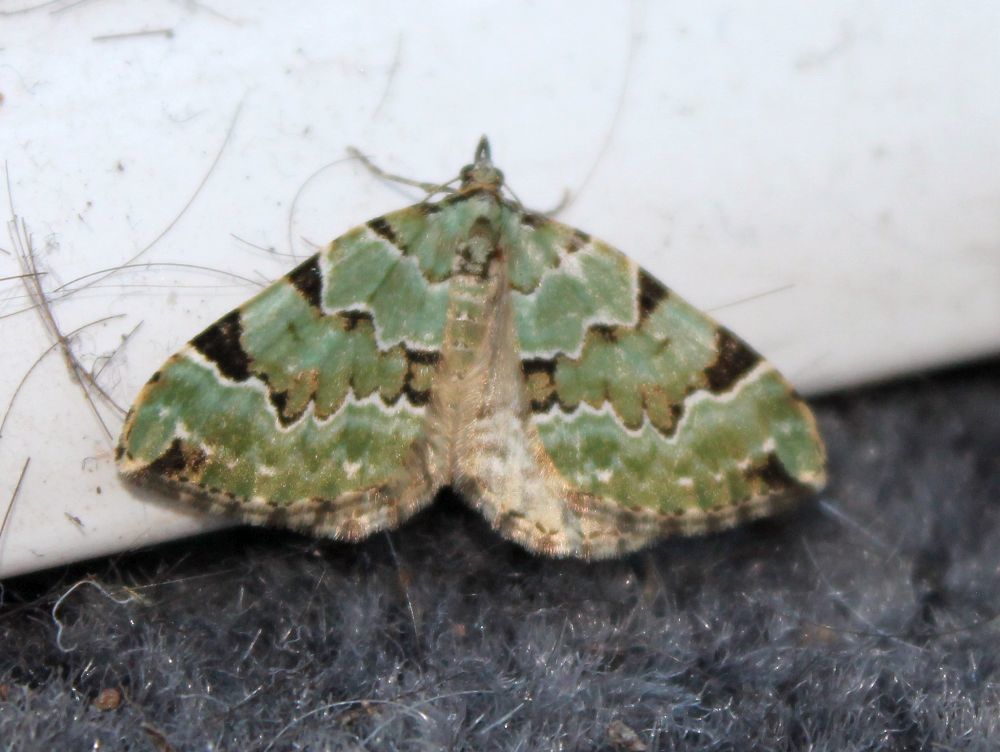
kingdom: Animalia
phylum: Arthropoda
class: Insecta
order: Lepidoptera
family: Geometridae
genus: Colostygia
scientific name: Colostygia pectinataria
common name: Green carpet
